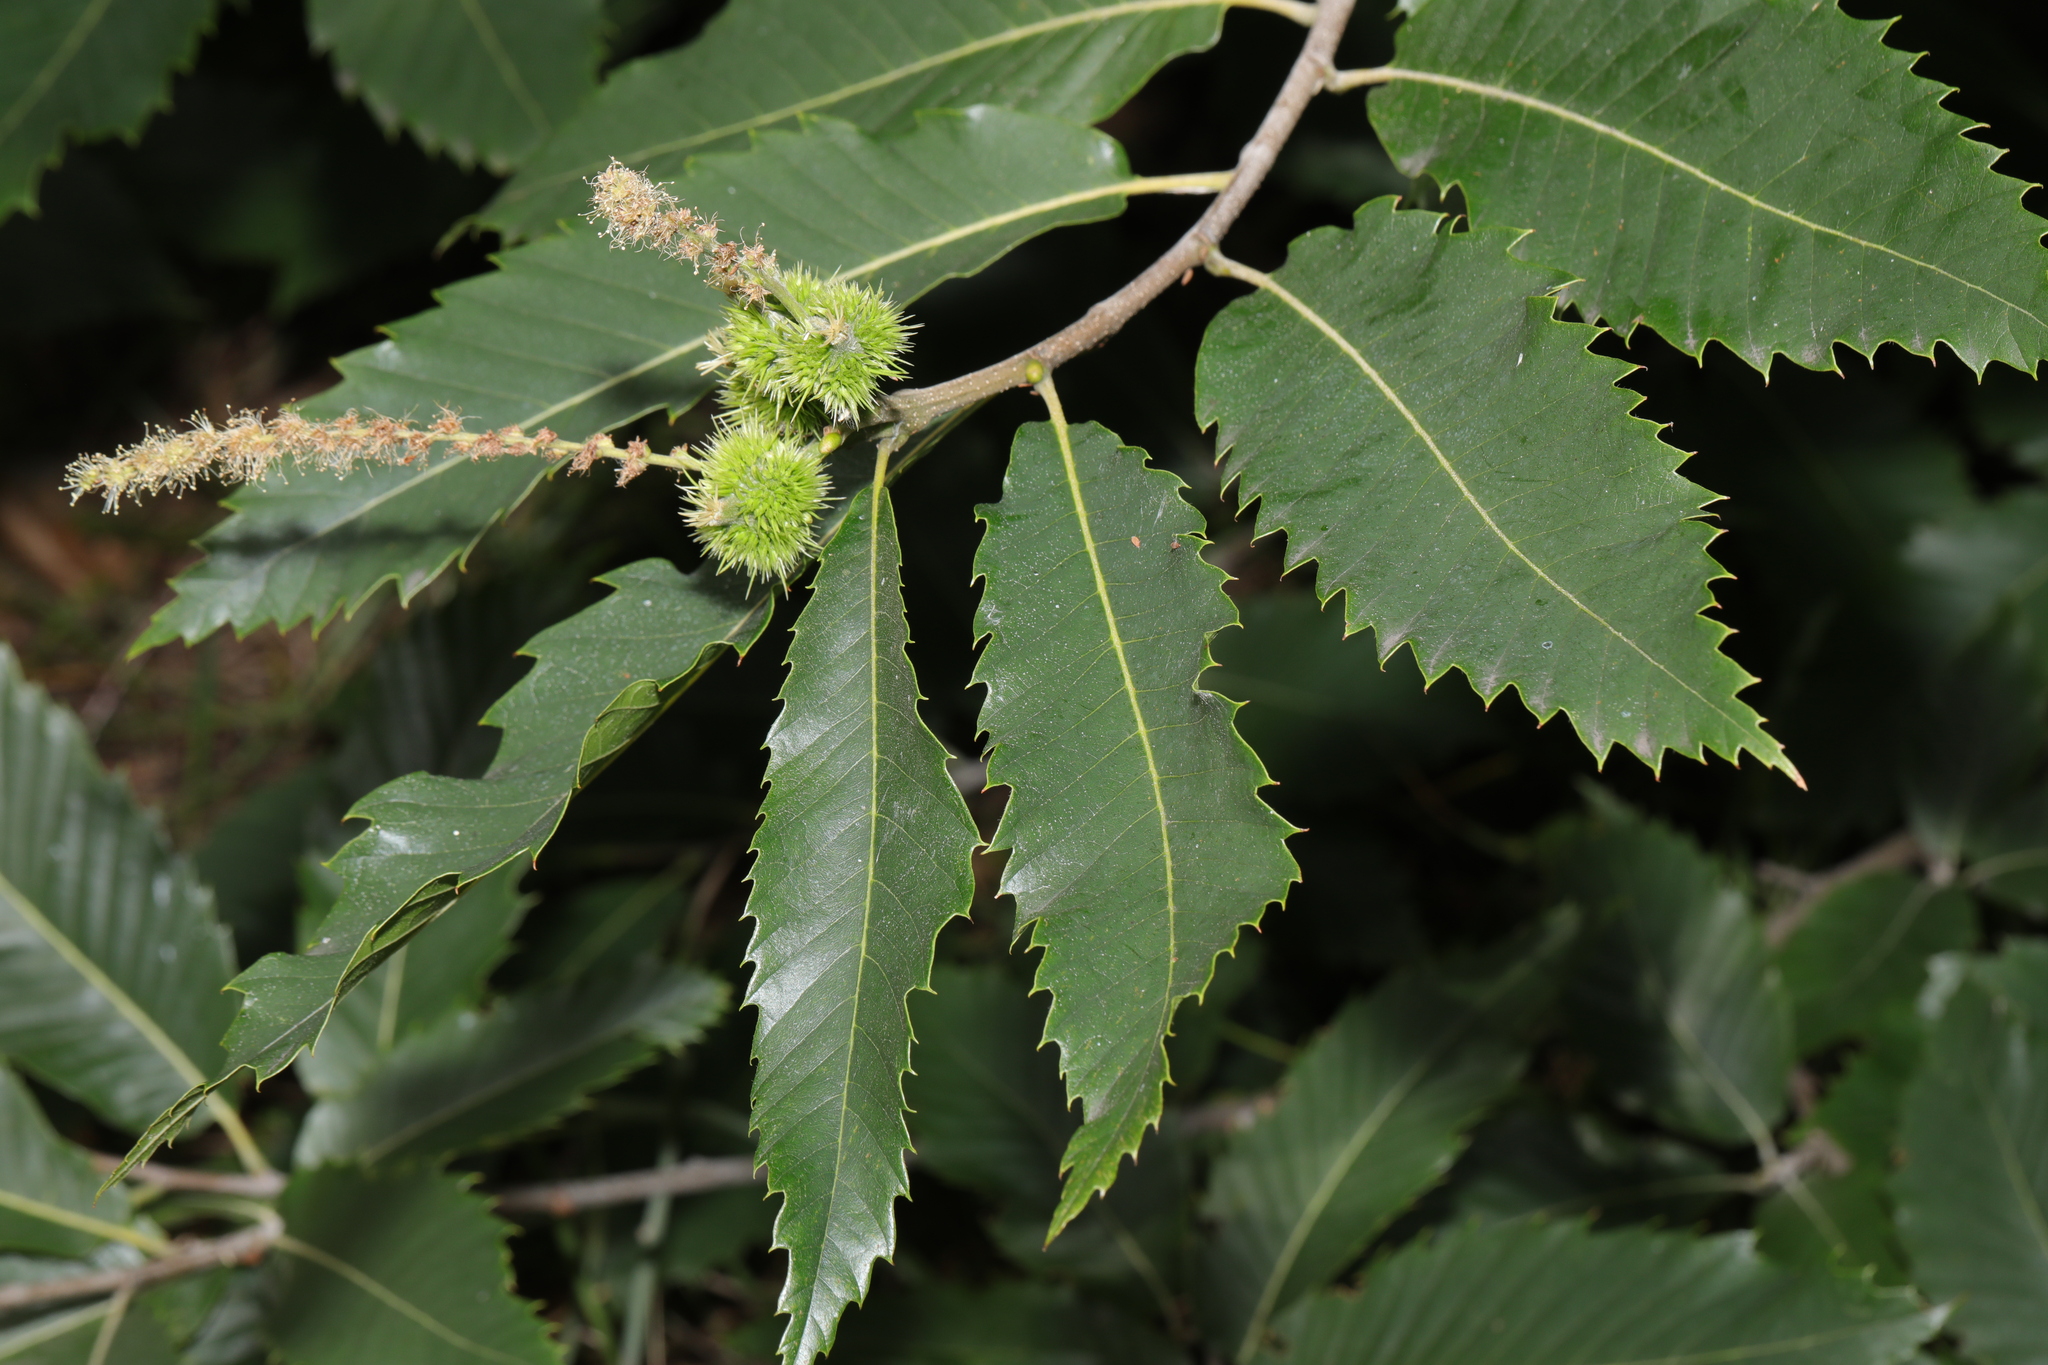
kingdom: Plantae
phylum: Tracheophyta
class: Magnoliopsida
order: Fagales
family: Fagaceae
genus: Castanea
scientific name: Castanea sativa
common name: Sweet chestnut
